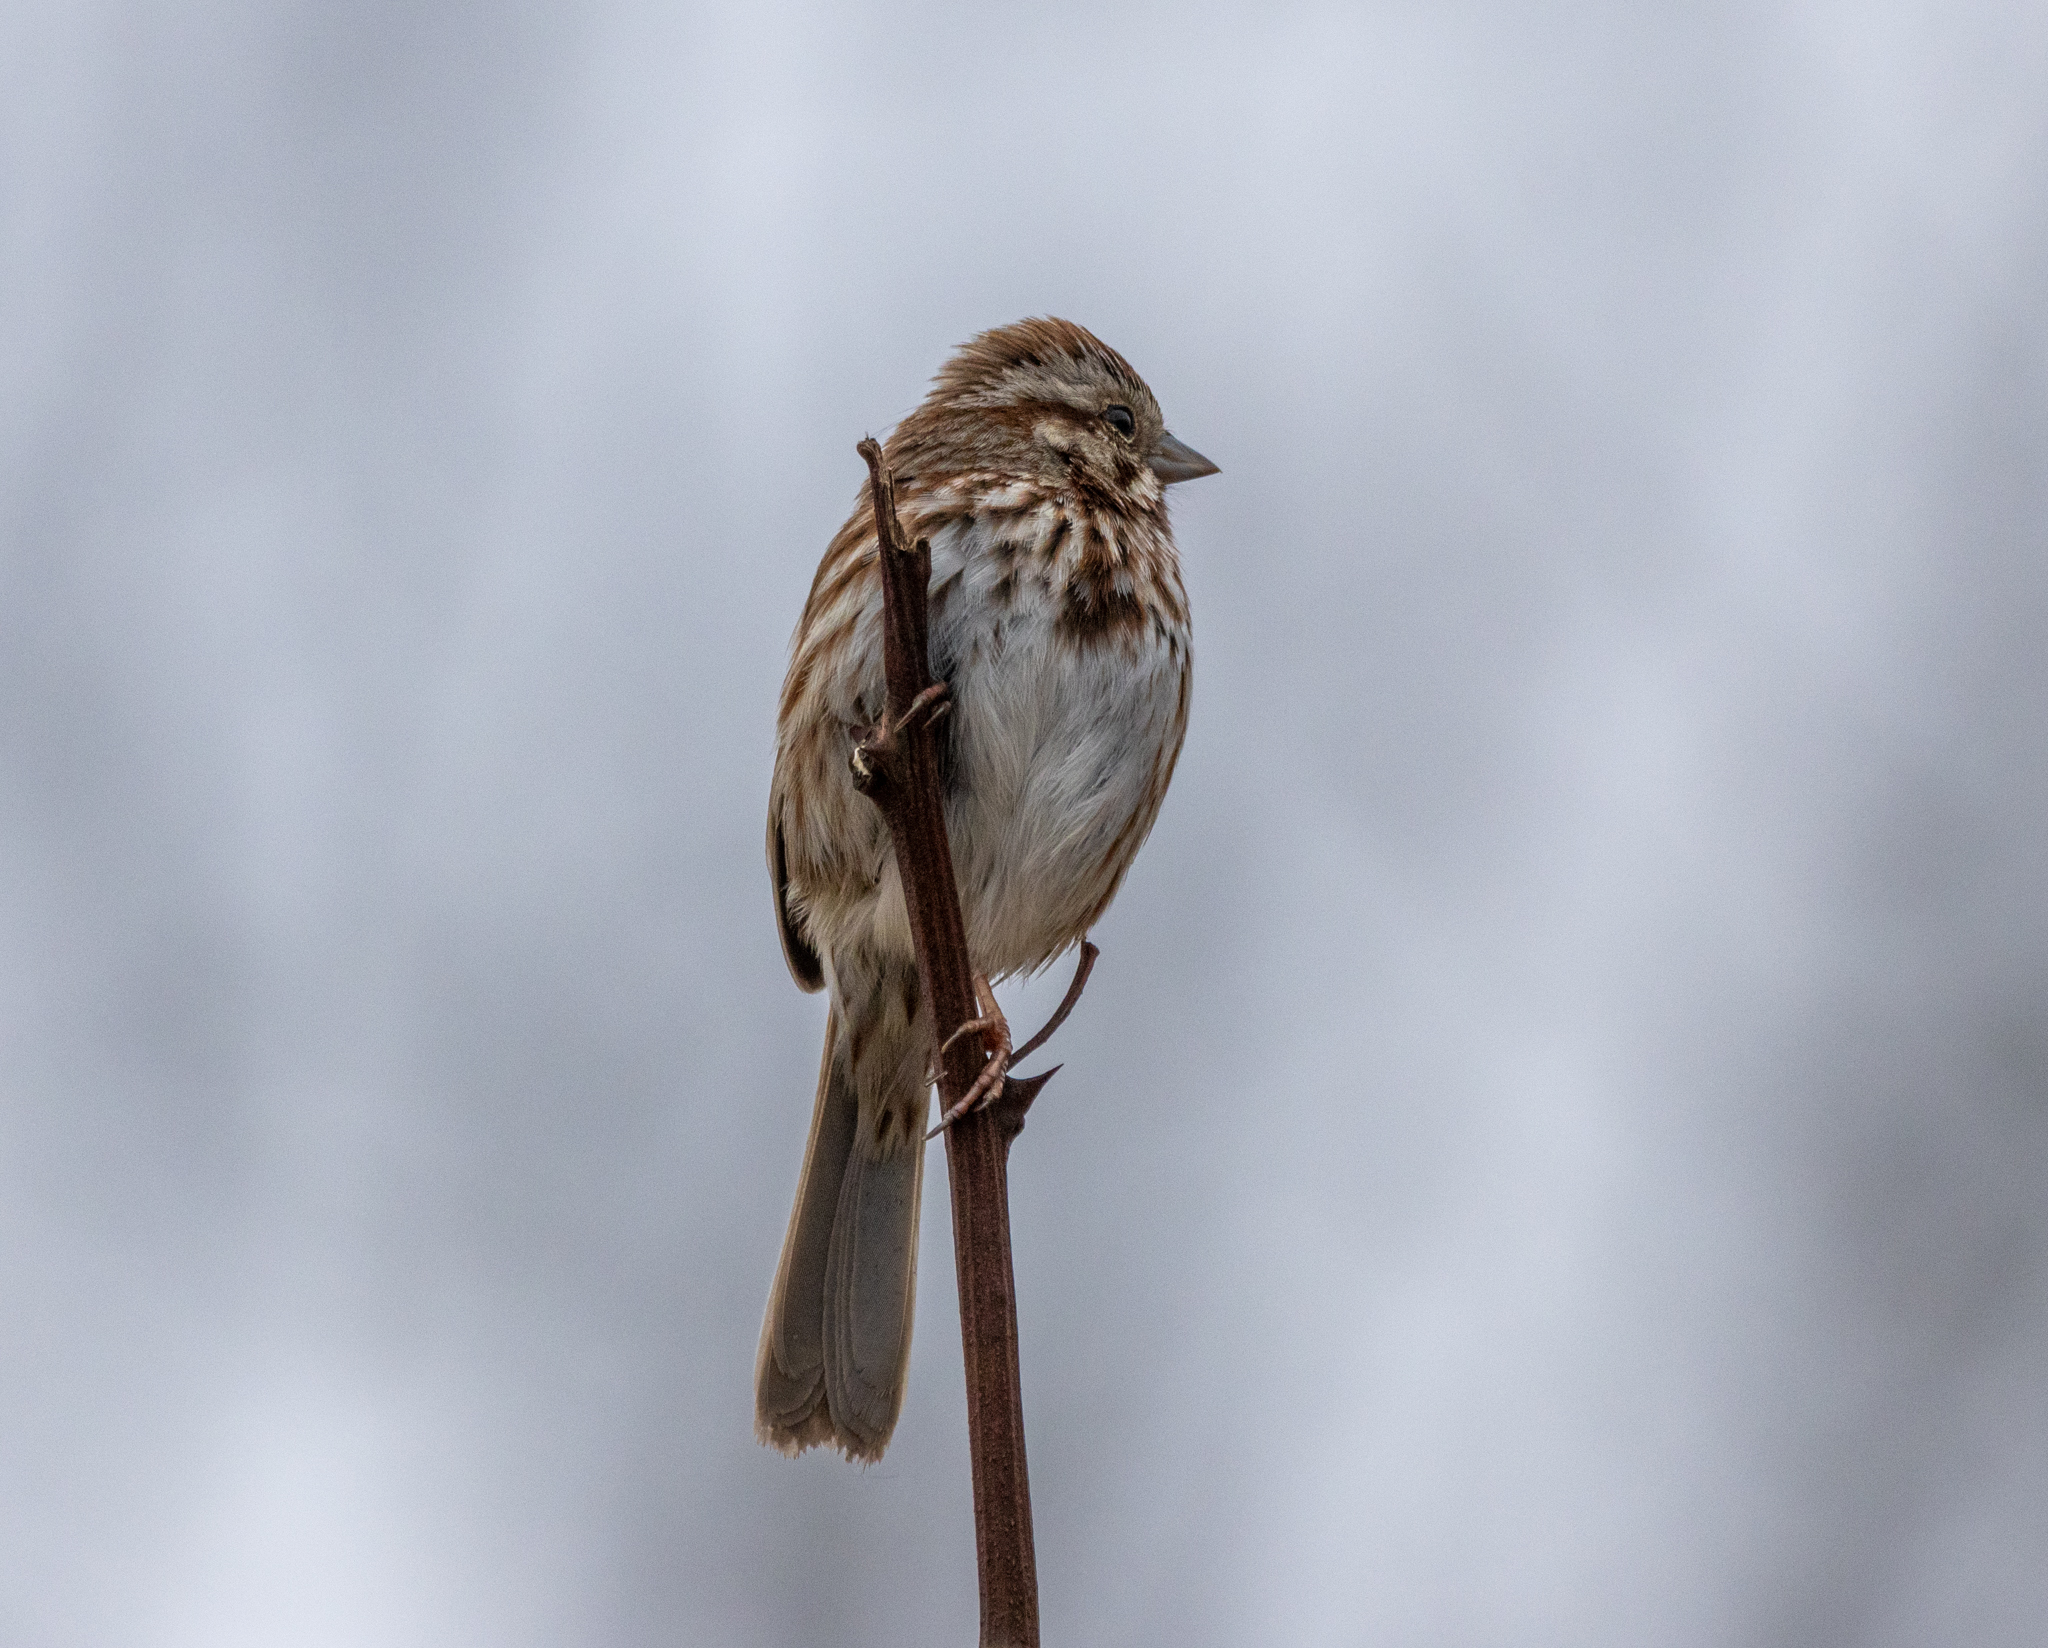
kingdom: Animalia
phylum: Chordata
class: Aves
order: Passeriformes
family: Passerellidae
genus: Melospiza
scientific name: Melospiza melodia
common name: Song sparrow
